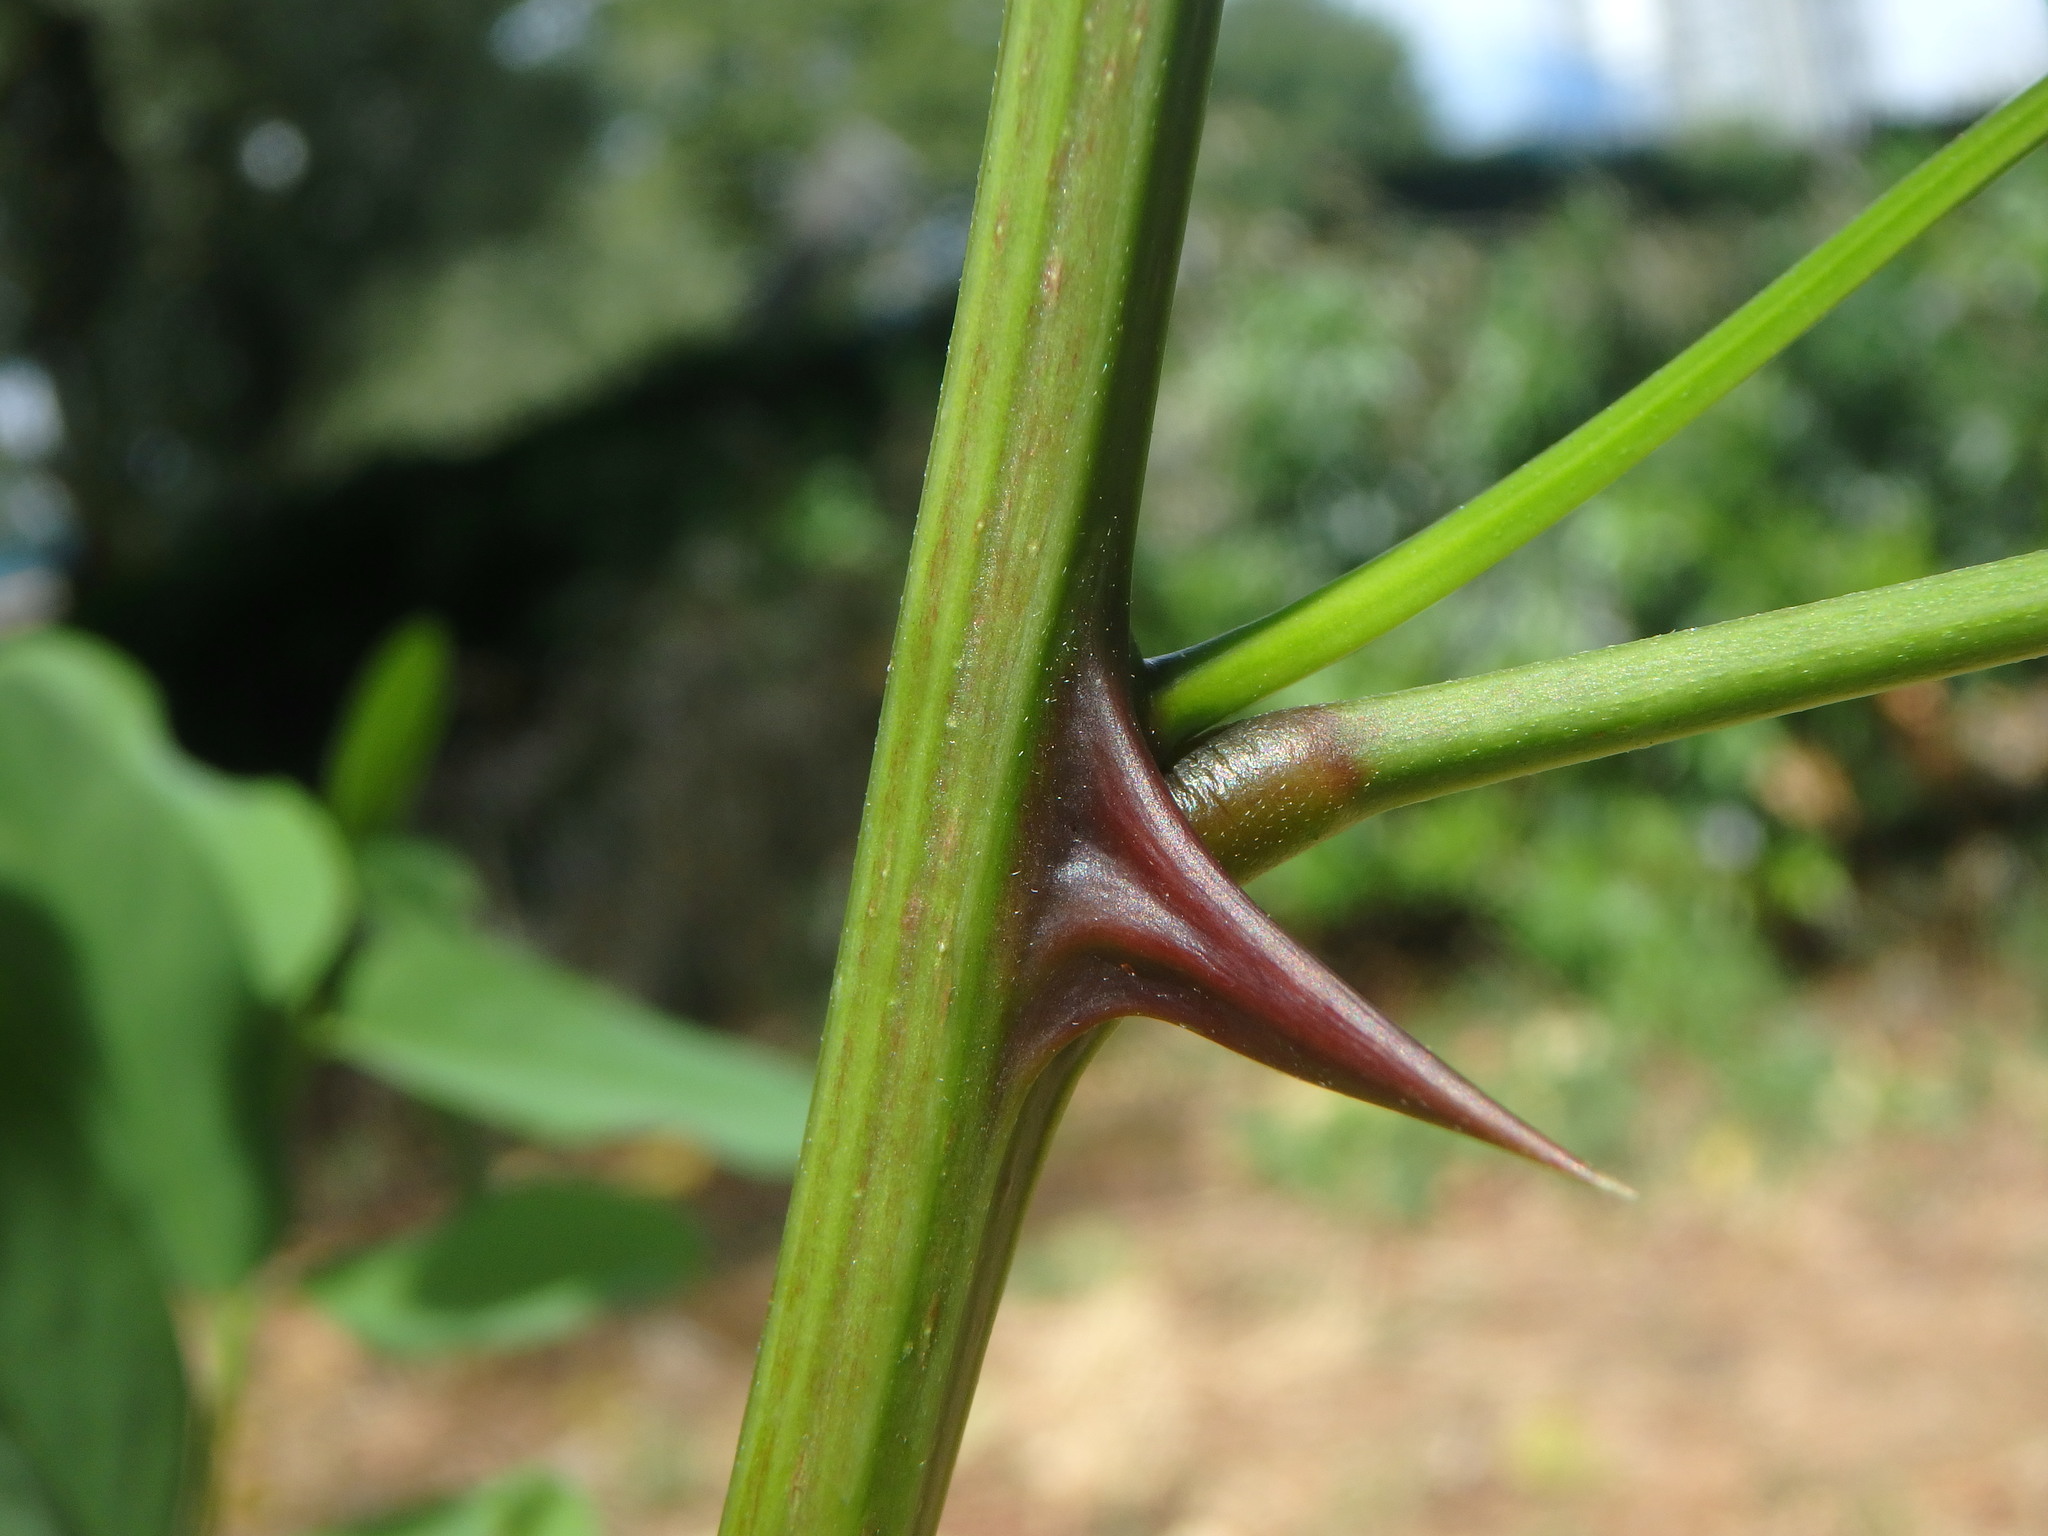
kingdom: Plantae
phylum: Tracheophyta
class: Magnoliopsida
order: Fabales
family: Fabaceae
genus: Robinia
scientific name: Robinia pseudoacacia
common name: Black locust
